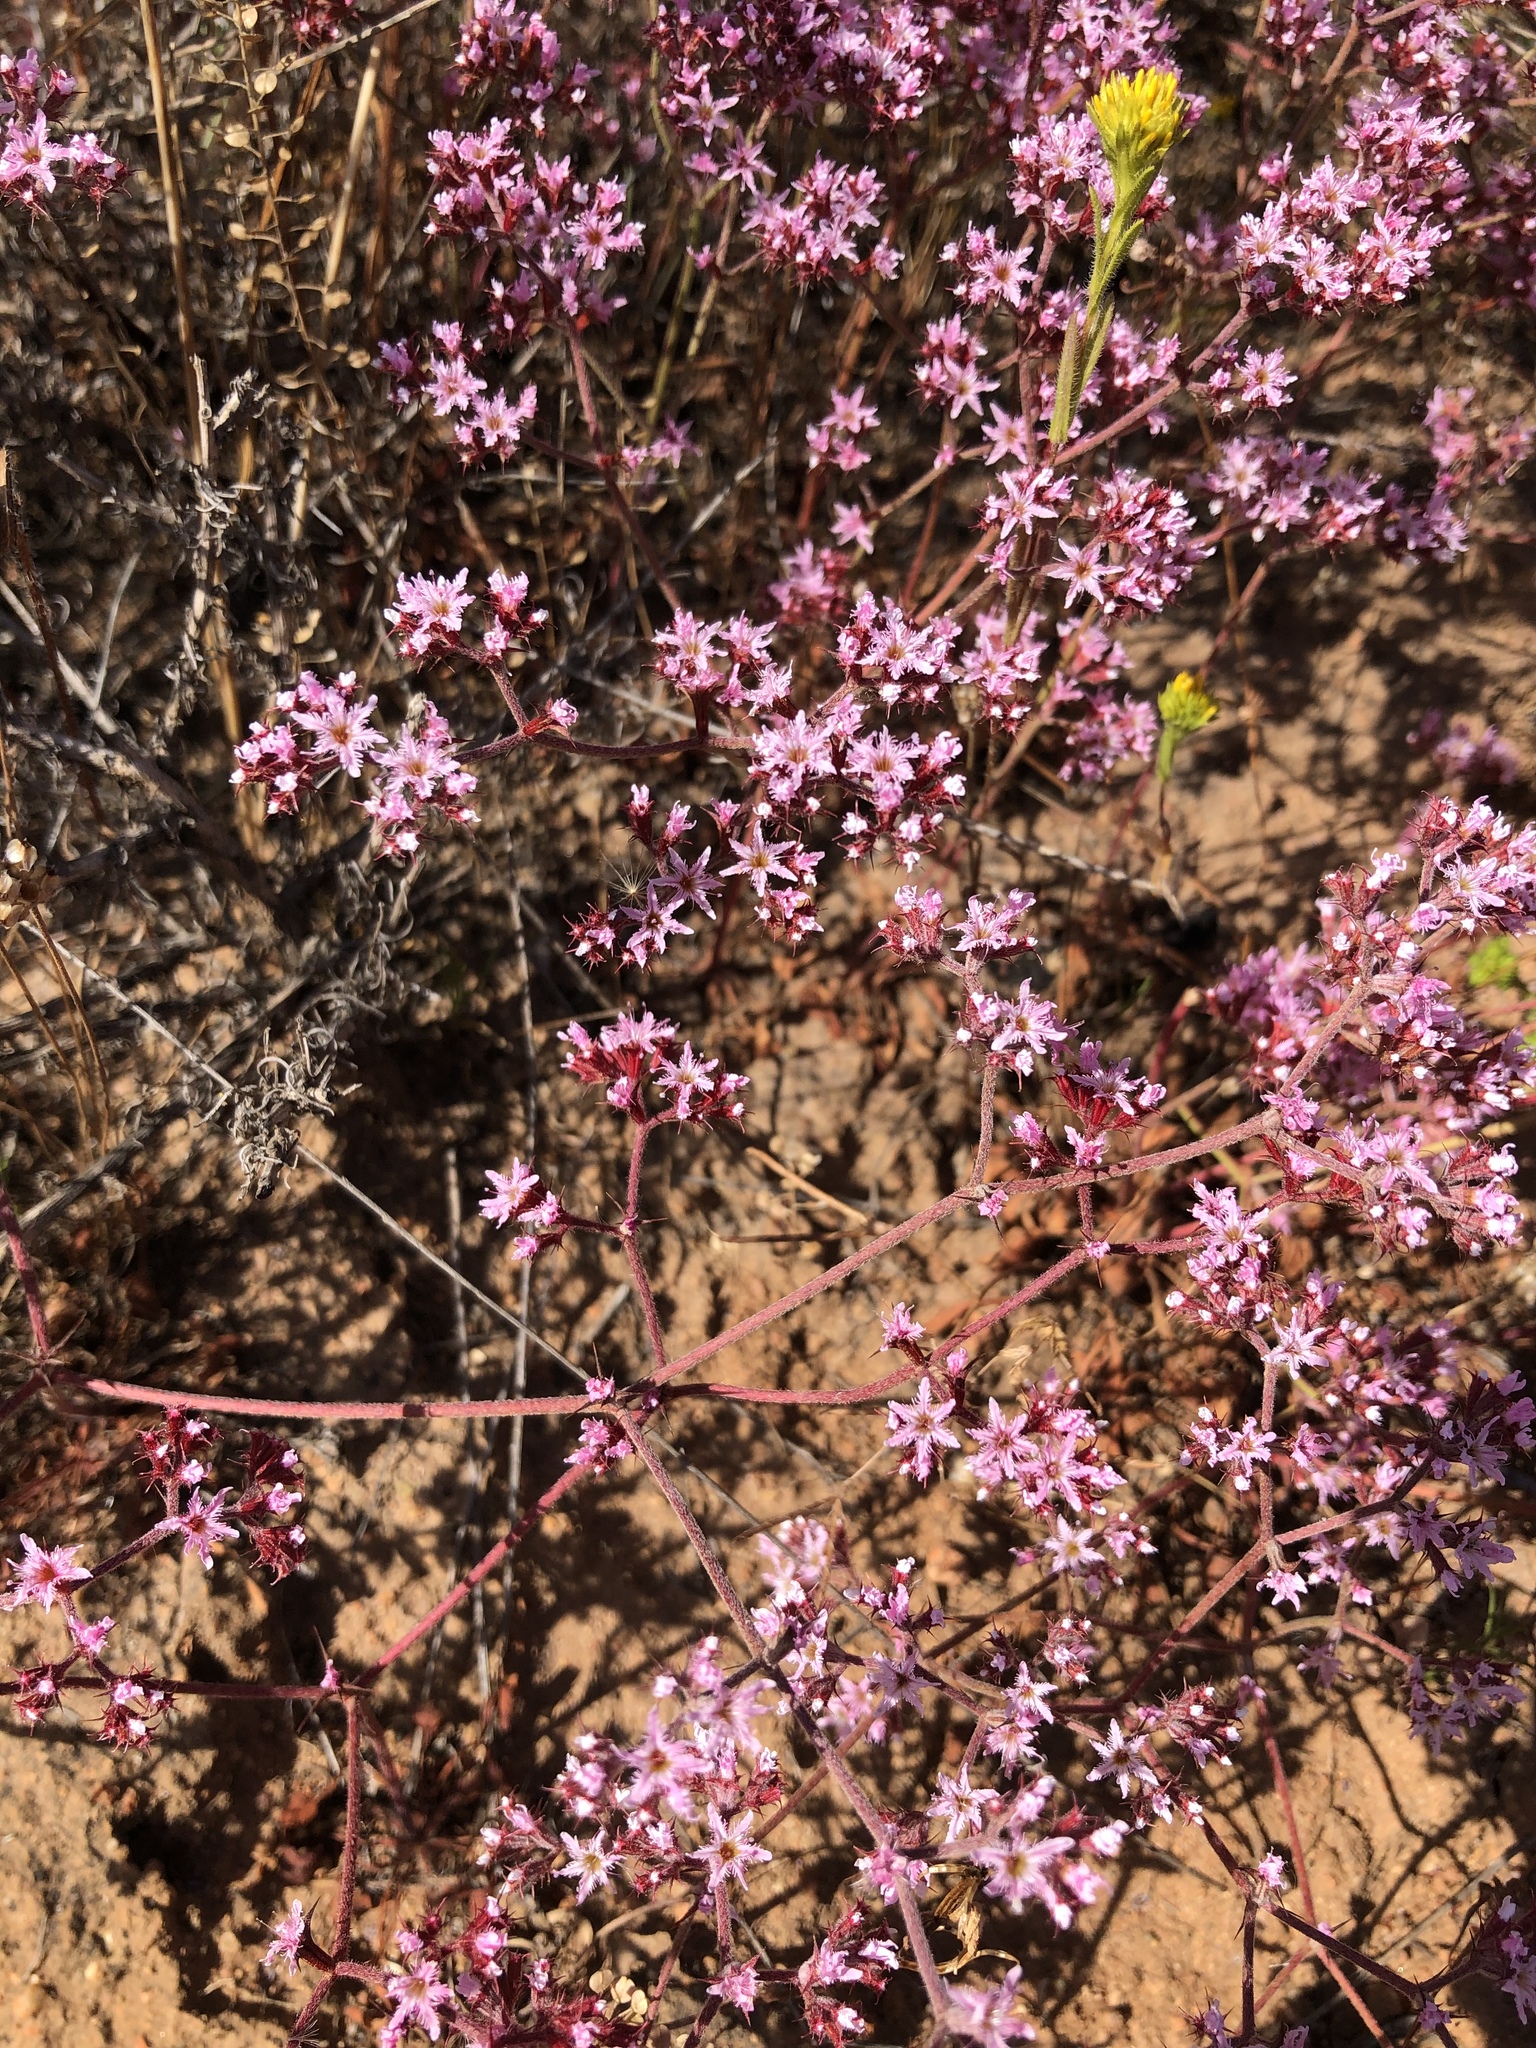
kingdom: Plantae
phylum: Tracheophyta
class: Magnoliopsida
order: Caryophyllales
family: Polygonaceae
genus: Chorizanthe
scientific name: Chorizanthe fimbriata
